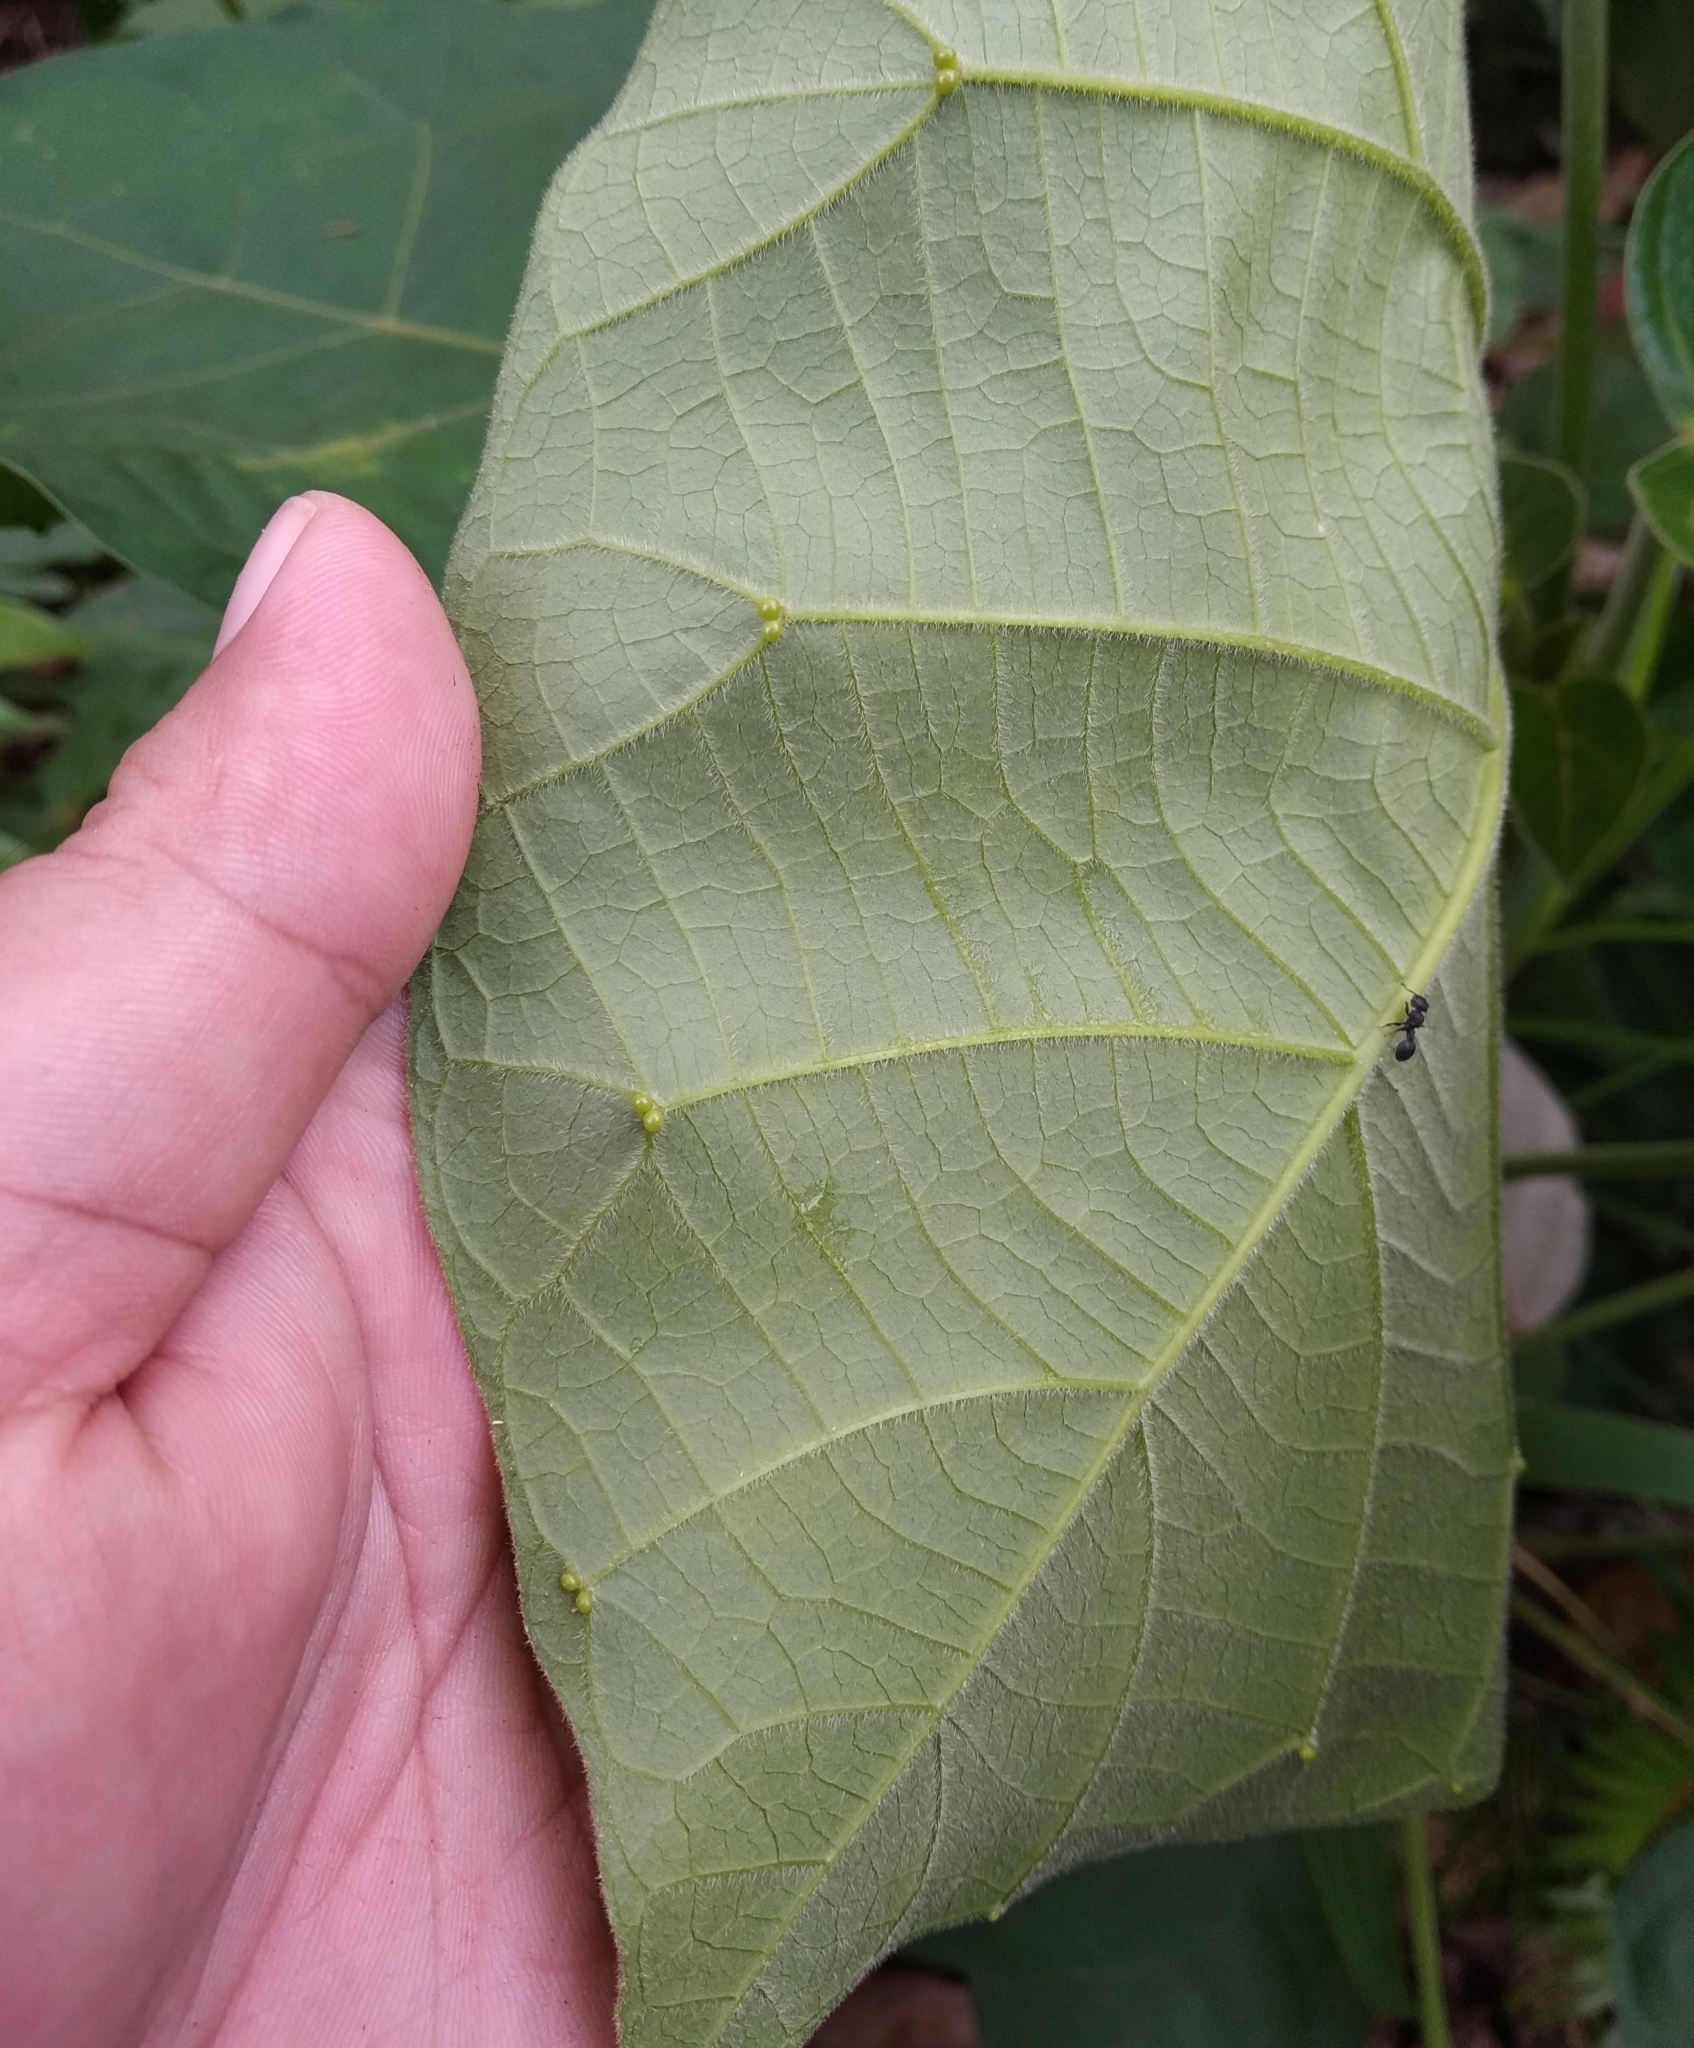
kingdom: Plantae
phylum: Tracheophyta
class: Magnoliopsida
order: Malpighiales
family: Euphorbiaceae
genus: Endospermum
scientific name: Endospermum diadenum
